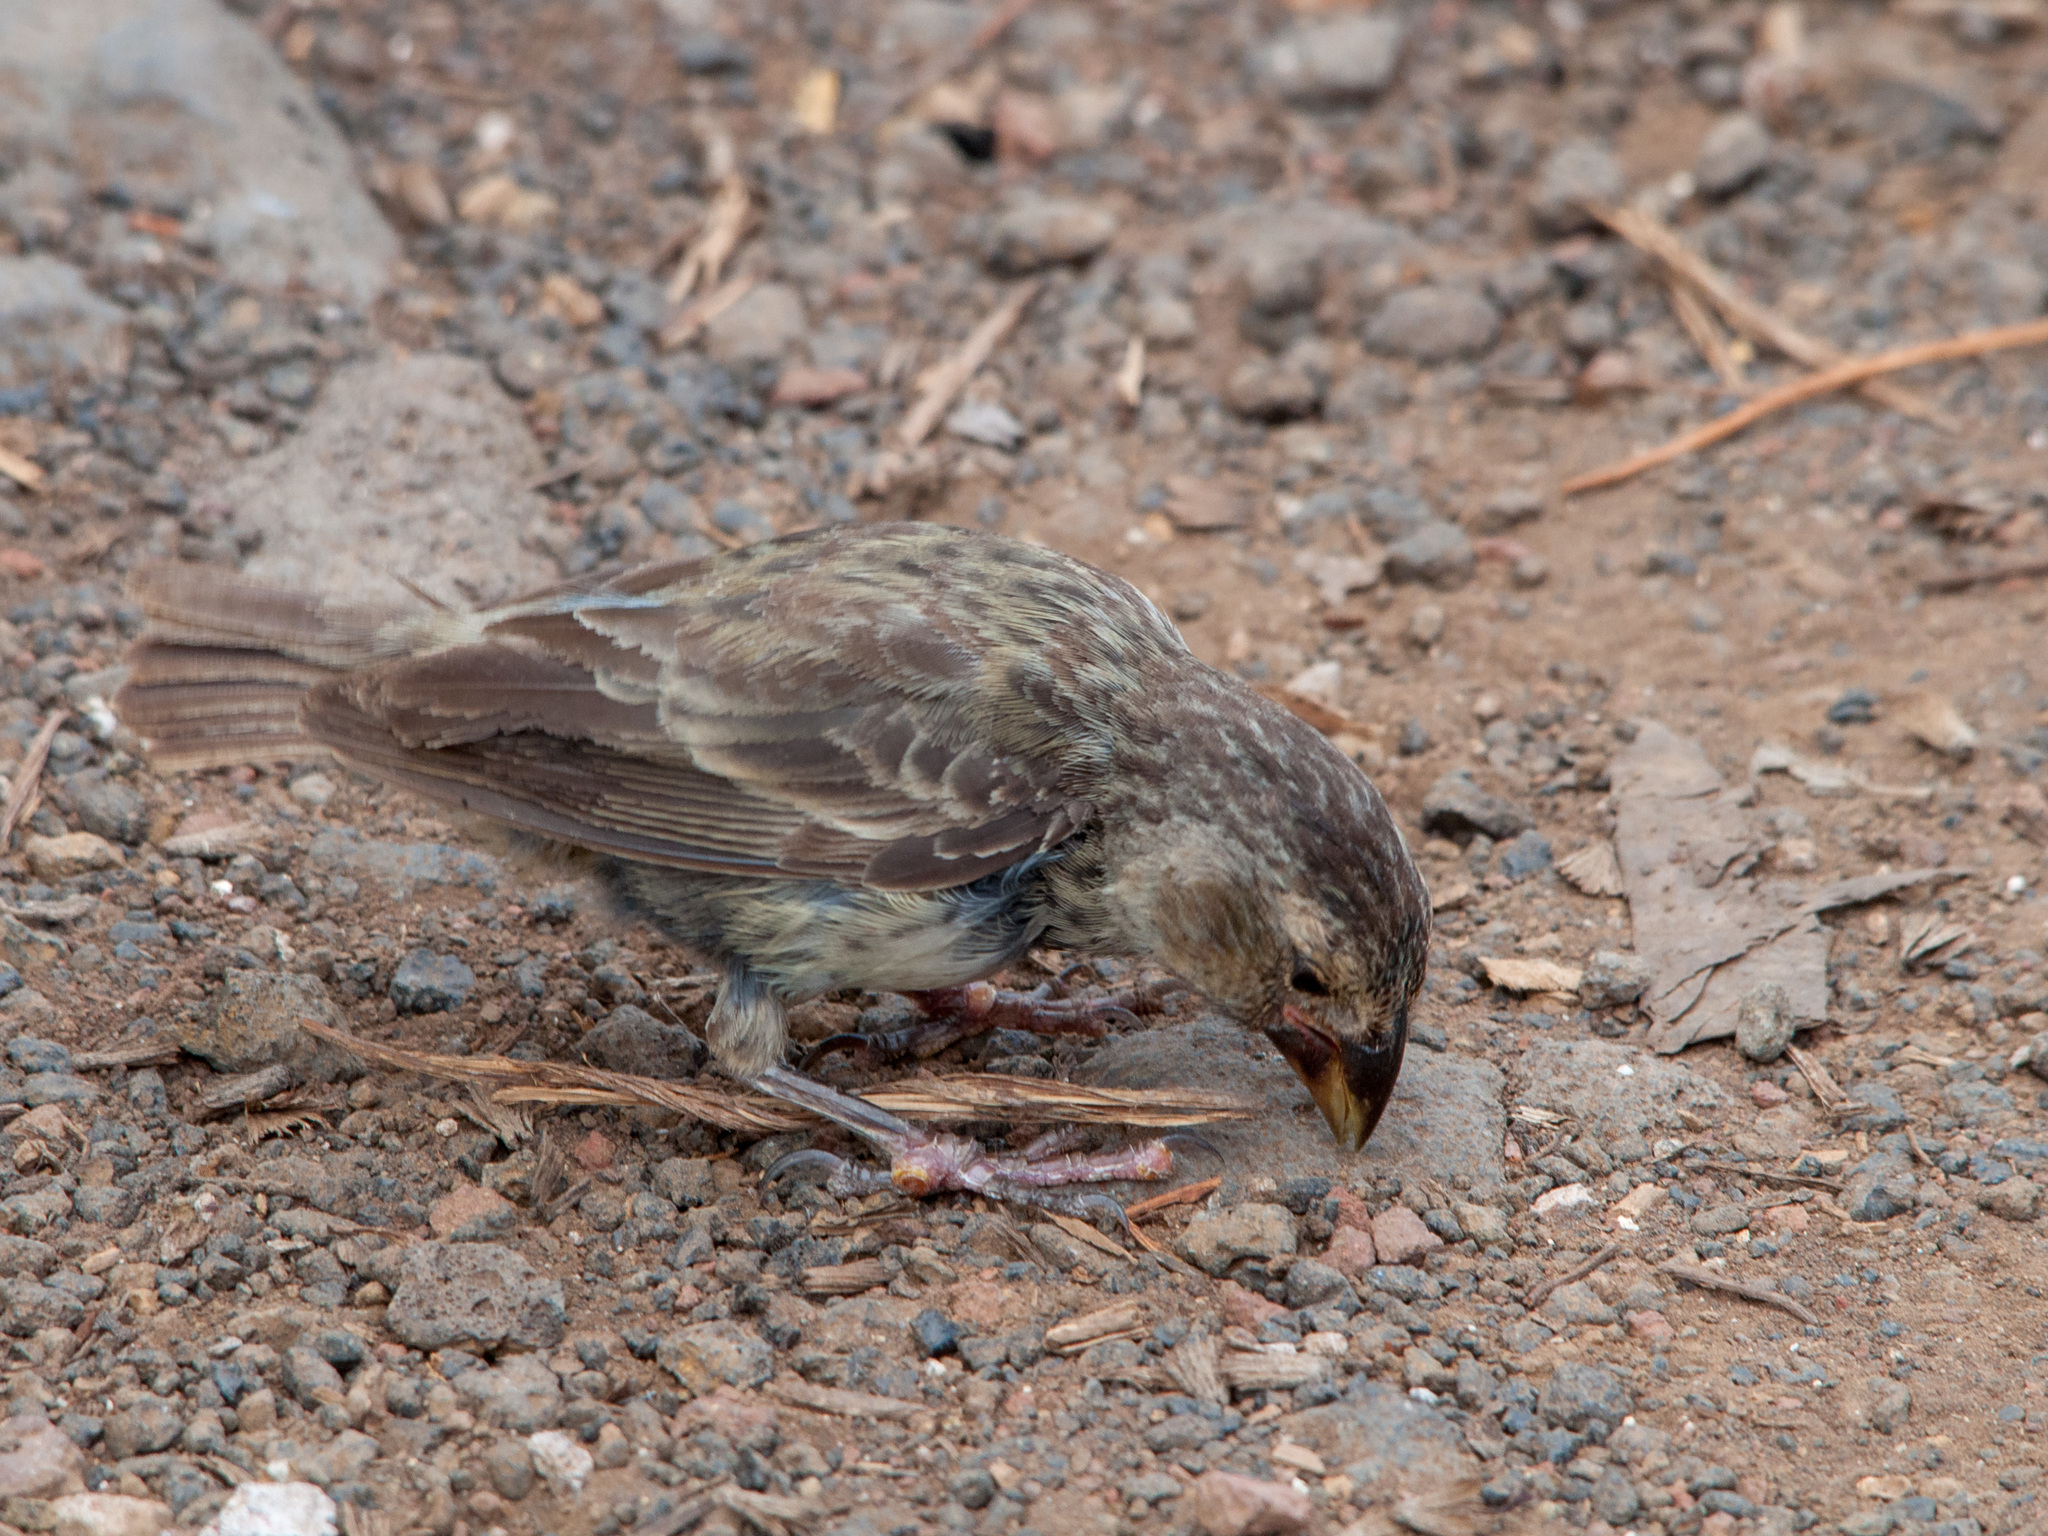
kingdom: Animalia
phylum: Chordata
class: Aves
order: Passeriformes
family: Thraupidae
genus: Geospiza
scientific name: Geospiza fortis
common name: Medium ground finch
